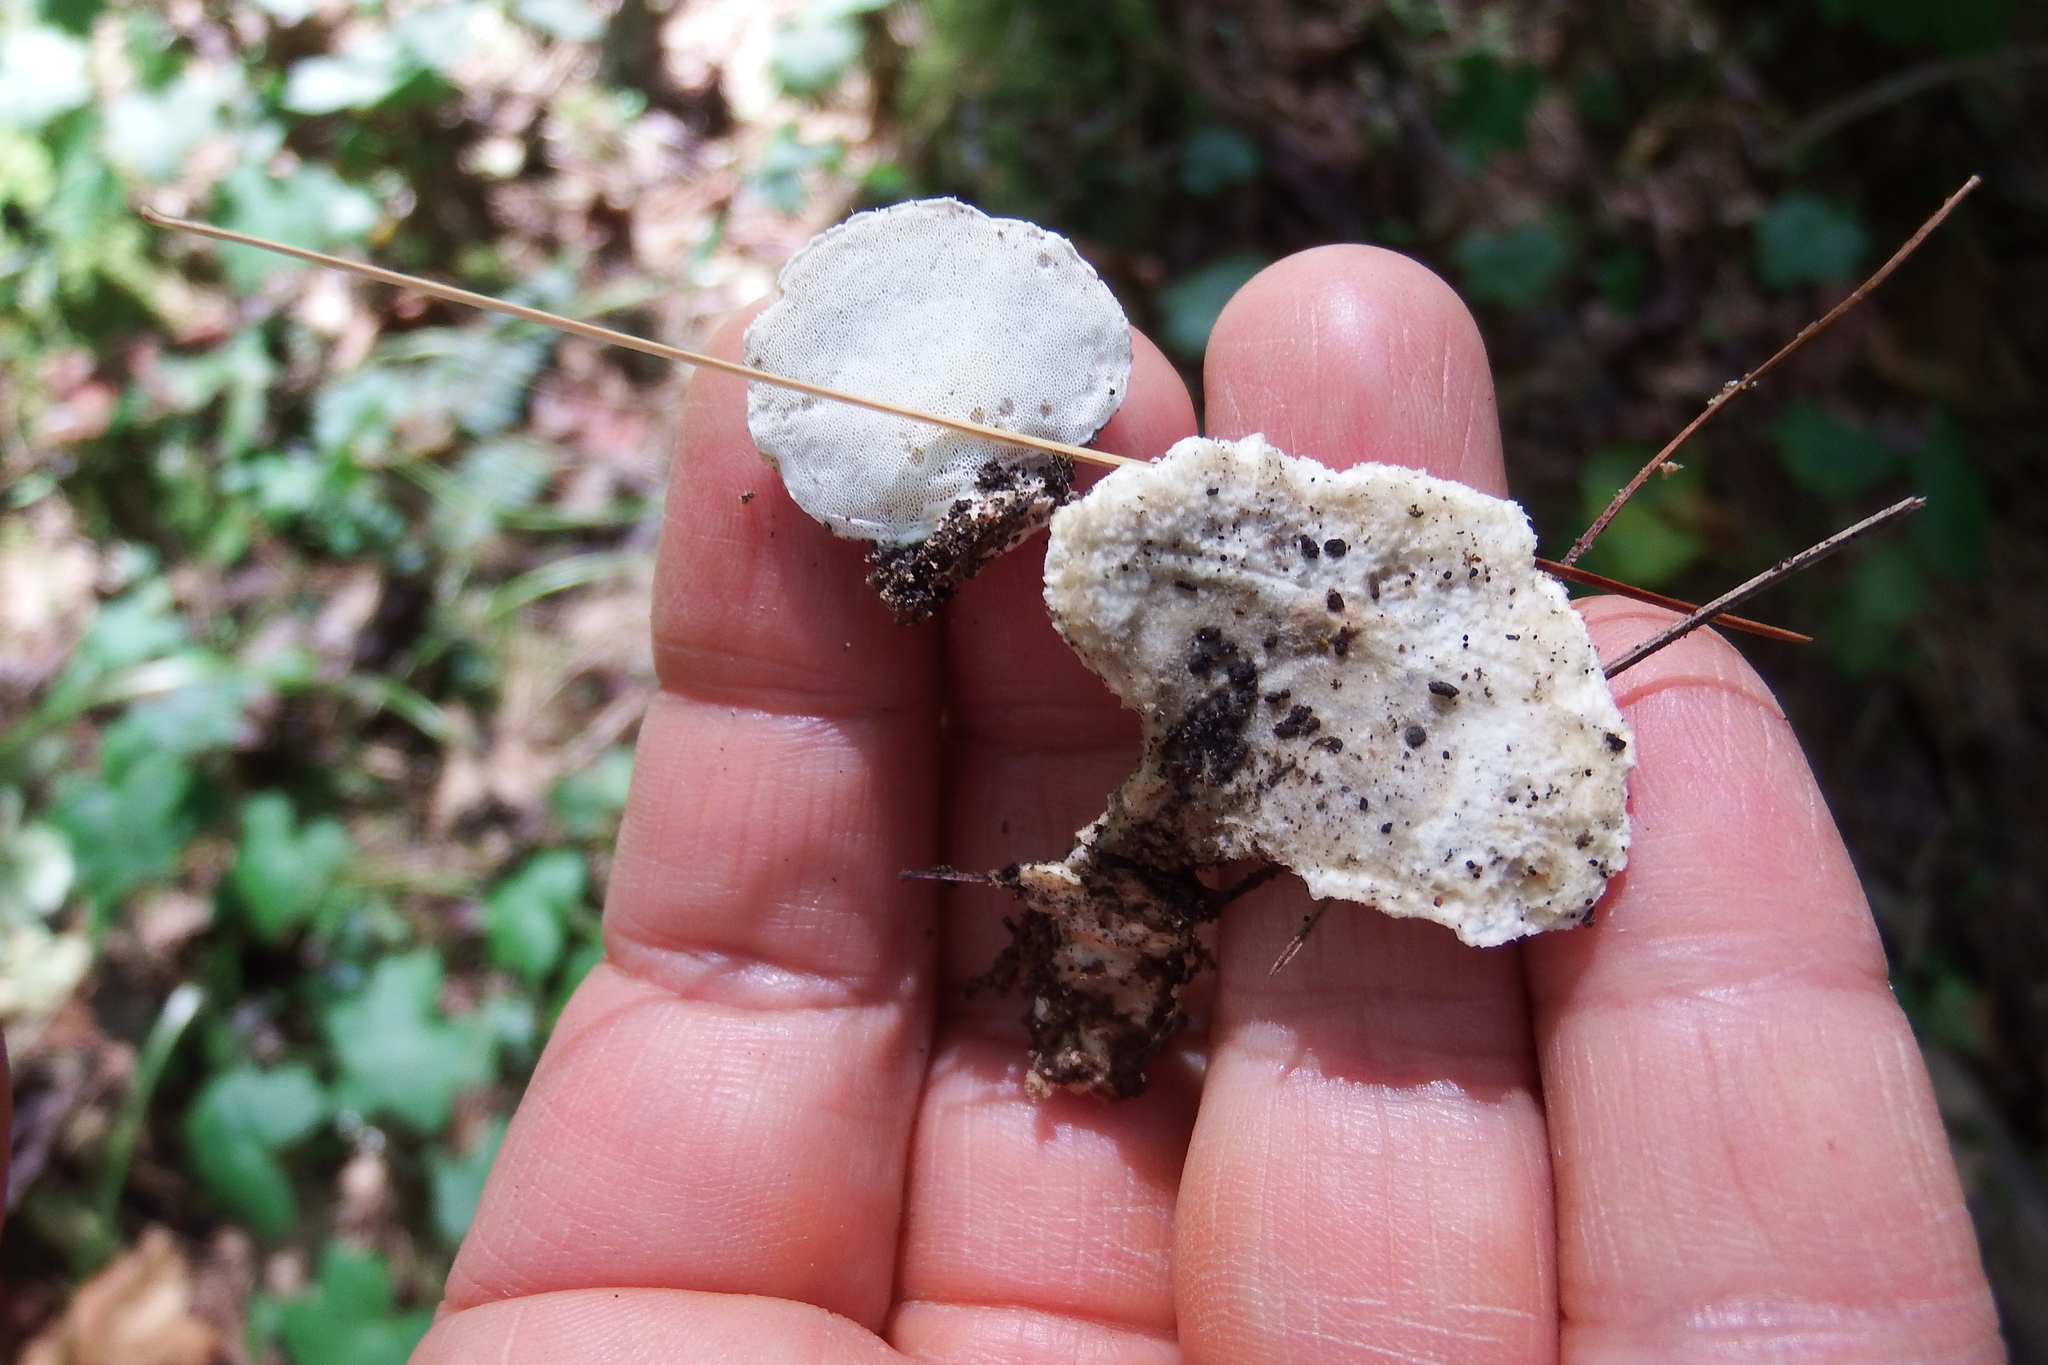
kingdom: Fungi
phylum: Basidiomycota
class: Agaricomycetes
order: Polyporales
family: Steccherinaceae
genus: Loweomyces
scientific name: Loweomyces fractipes
